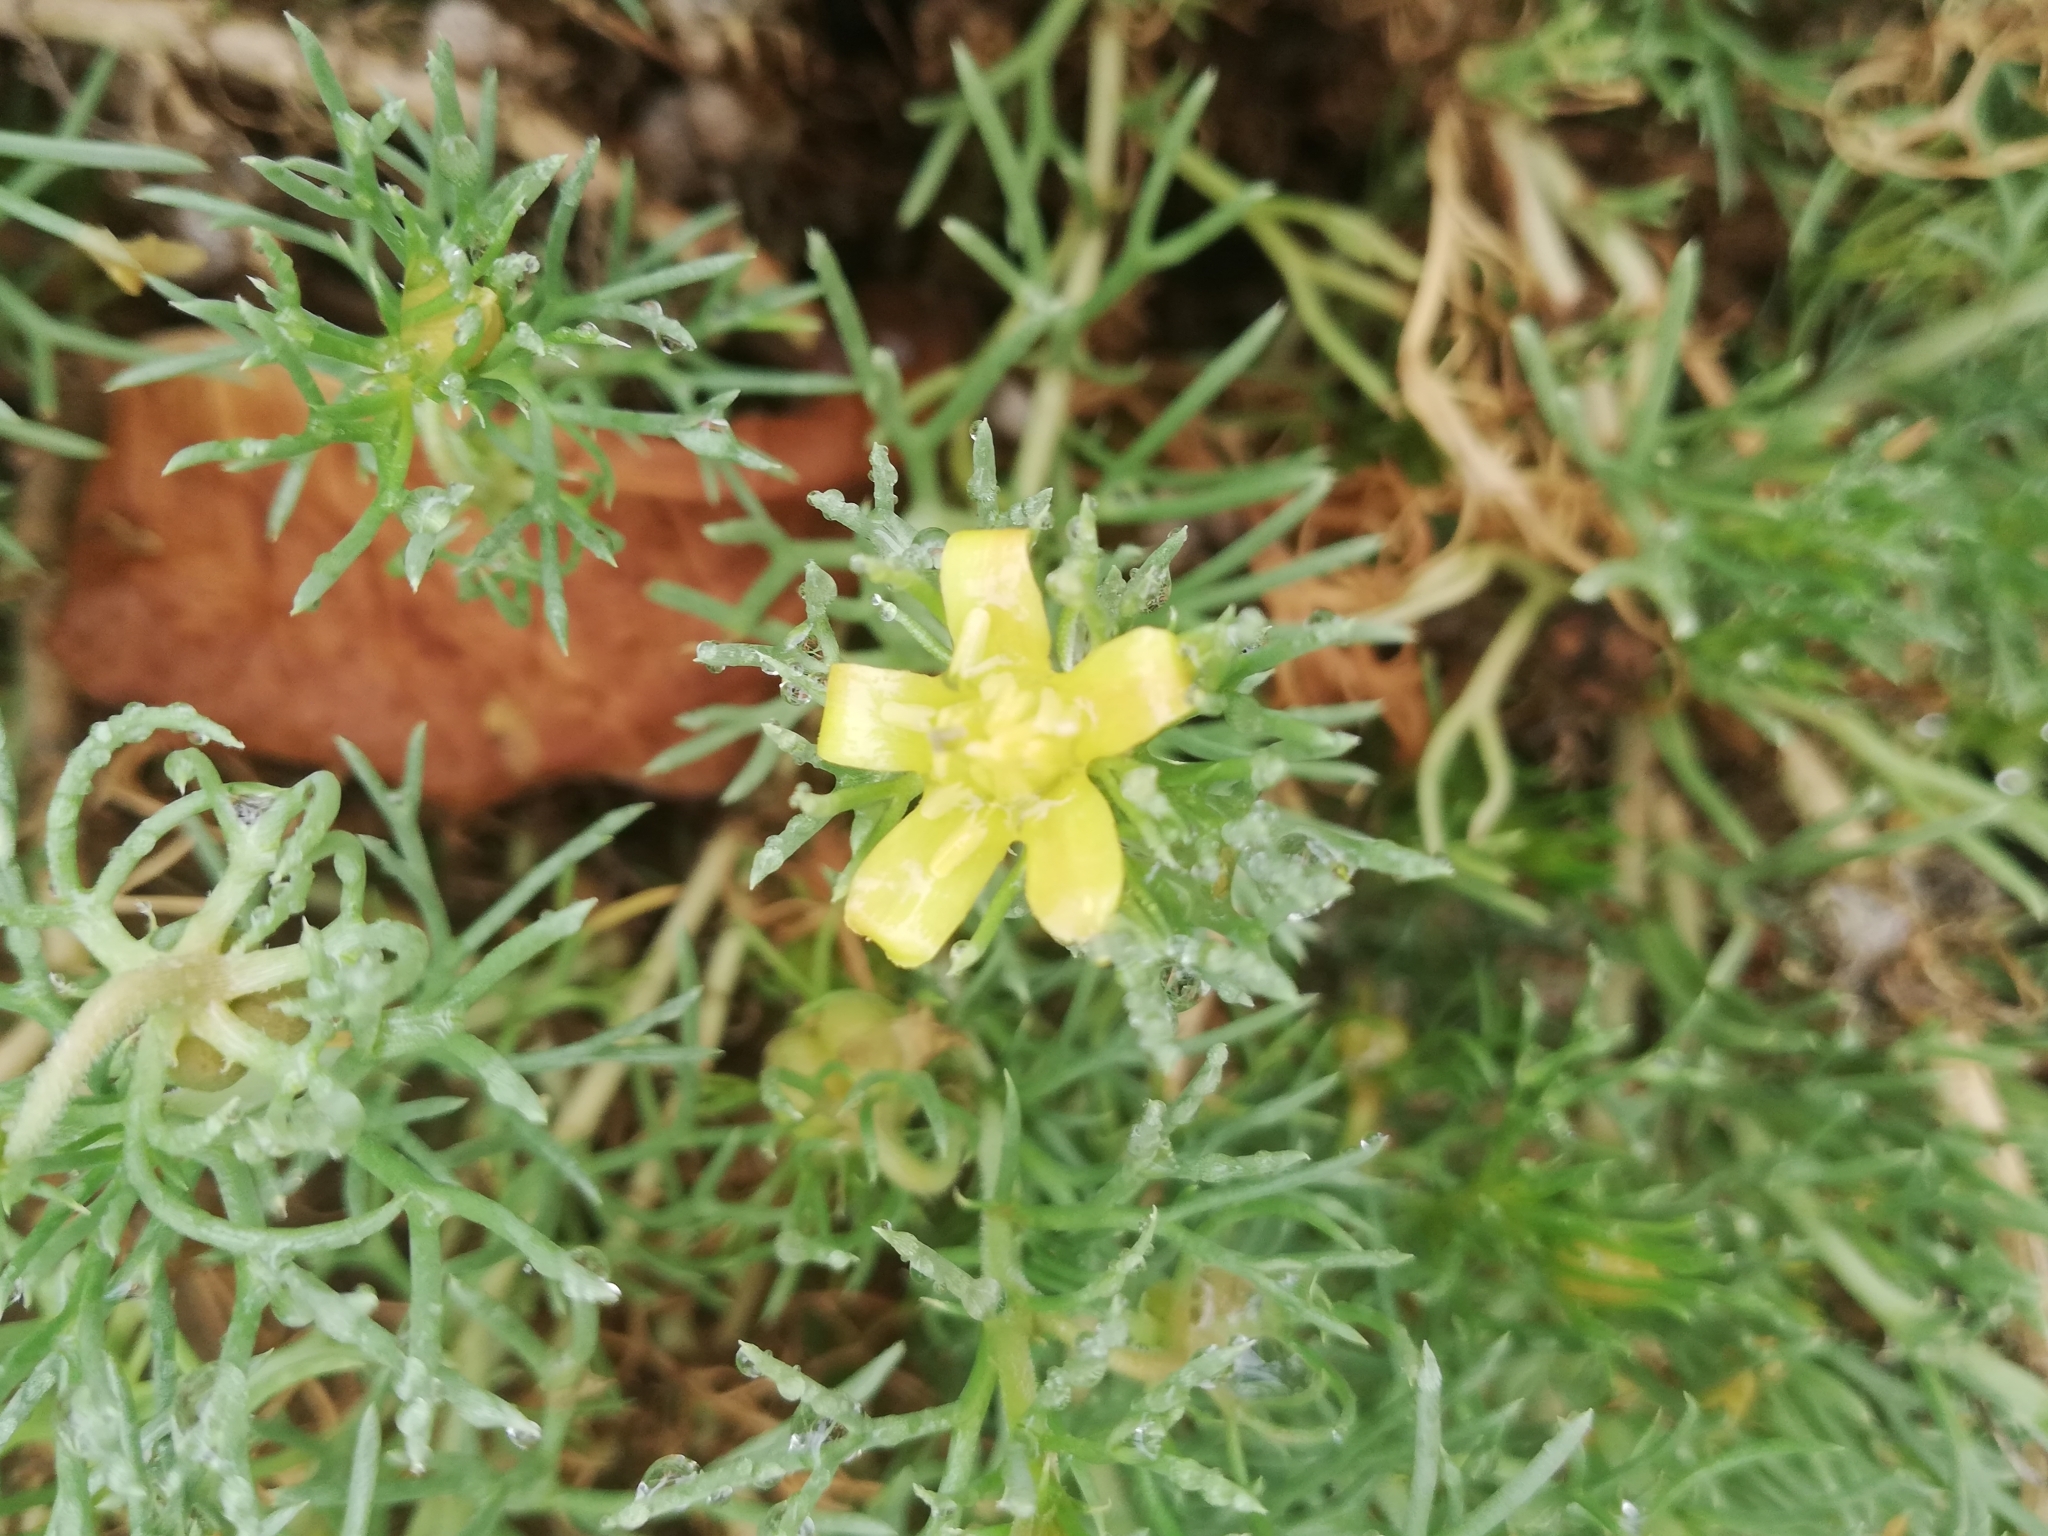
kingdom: Plantae
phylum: Tracheophyta
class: Magnoliopsida
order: Sapindales
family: Tetradiclidaceae
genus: Peganum
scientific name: Peganum mexicanum
